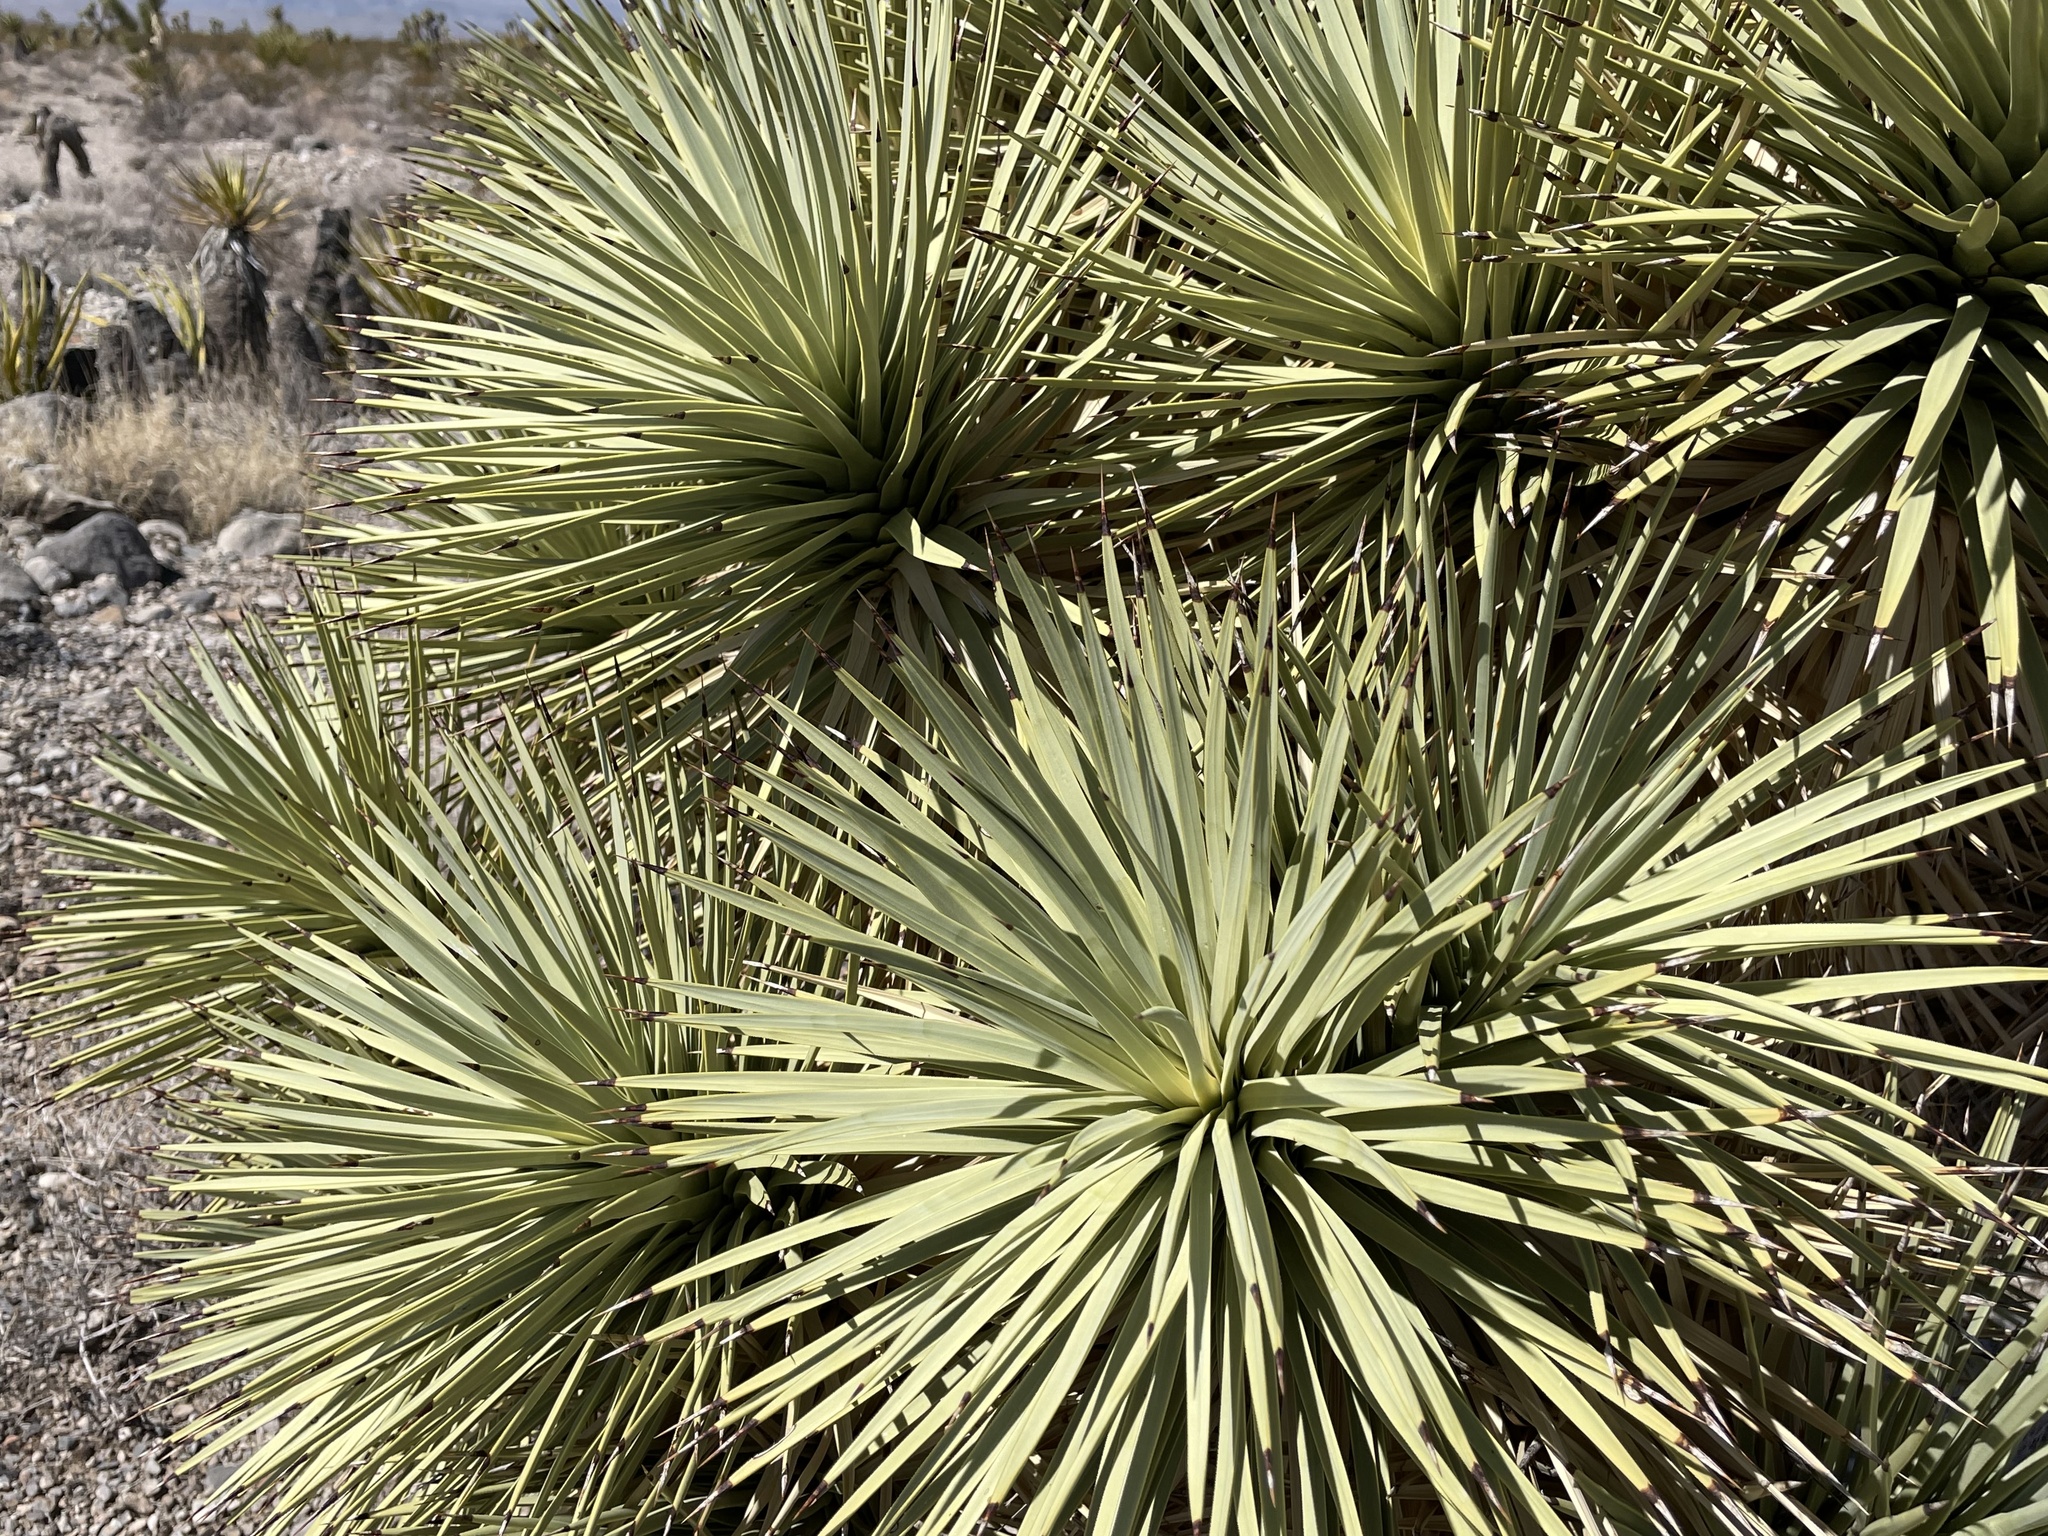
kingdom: Plantae
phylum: Tracheophyta
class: Liliopsida
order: Asparagales
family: Asparagaceae
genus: Yucca
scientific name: Yucca brevifolia
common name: Joshua tree
